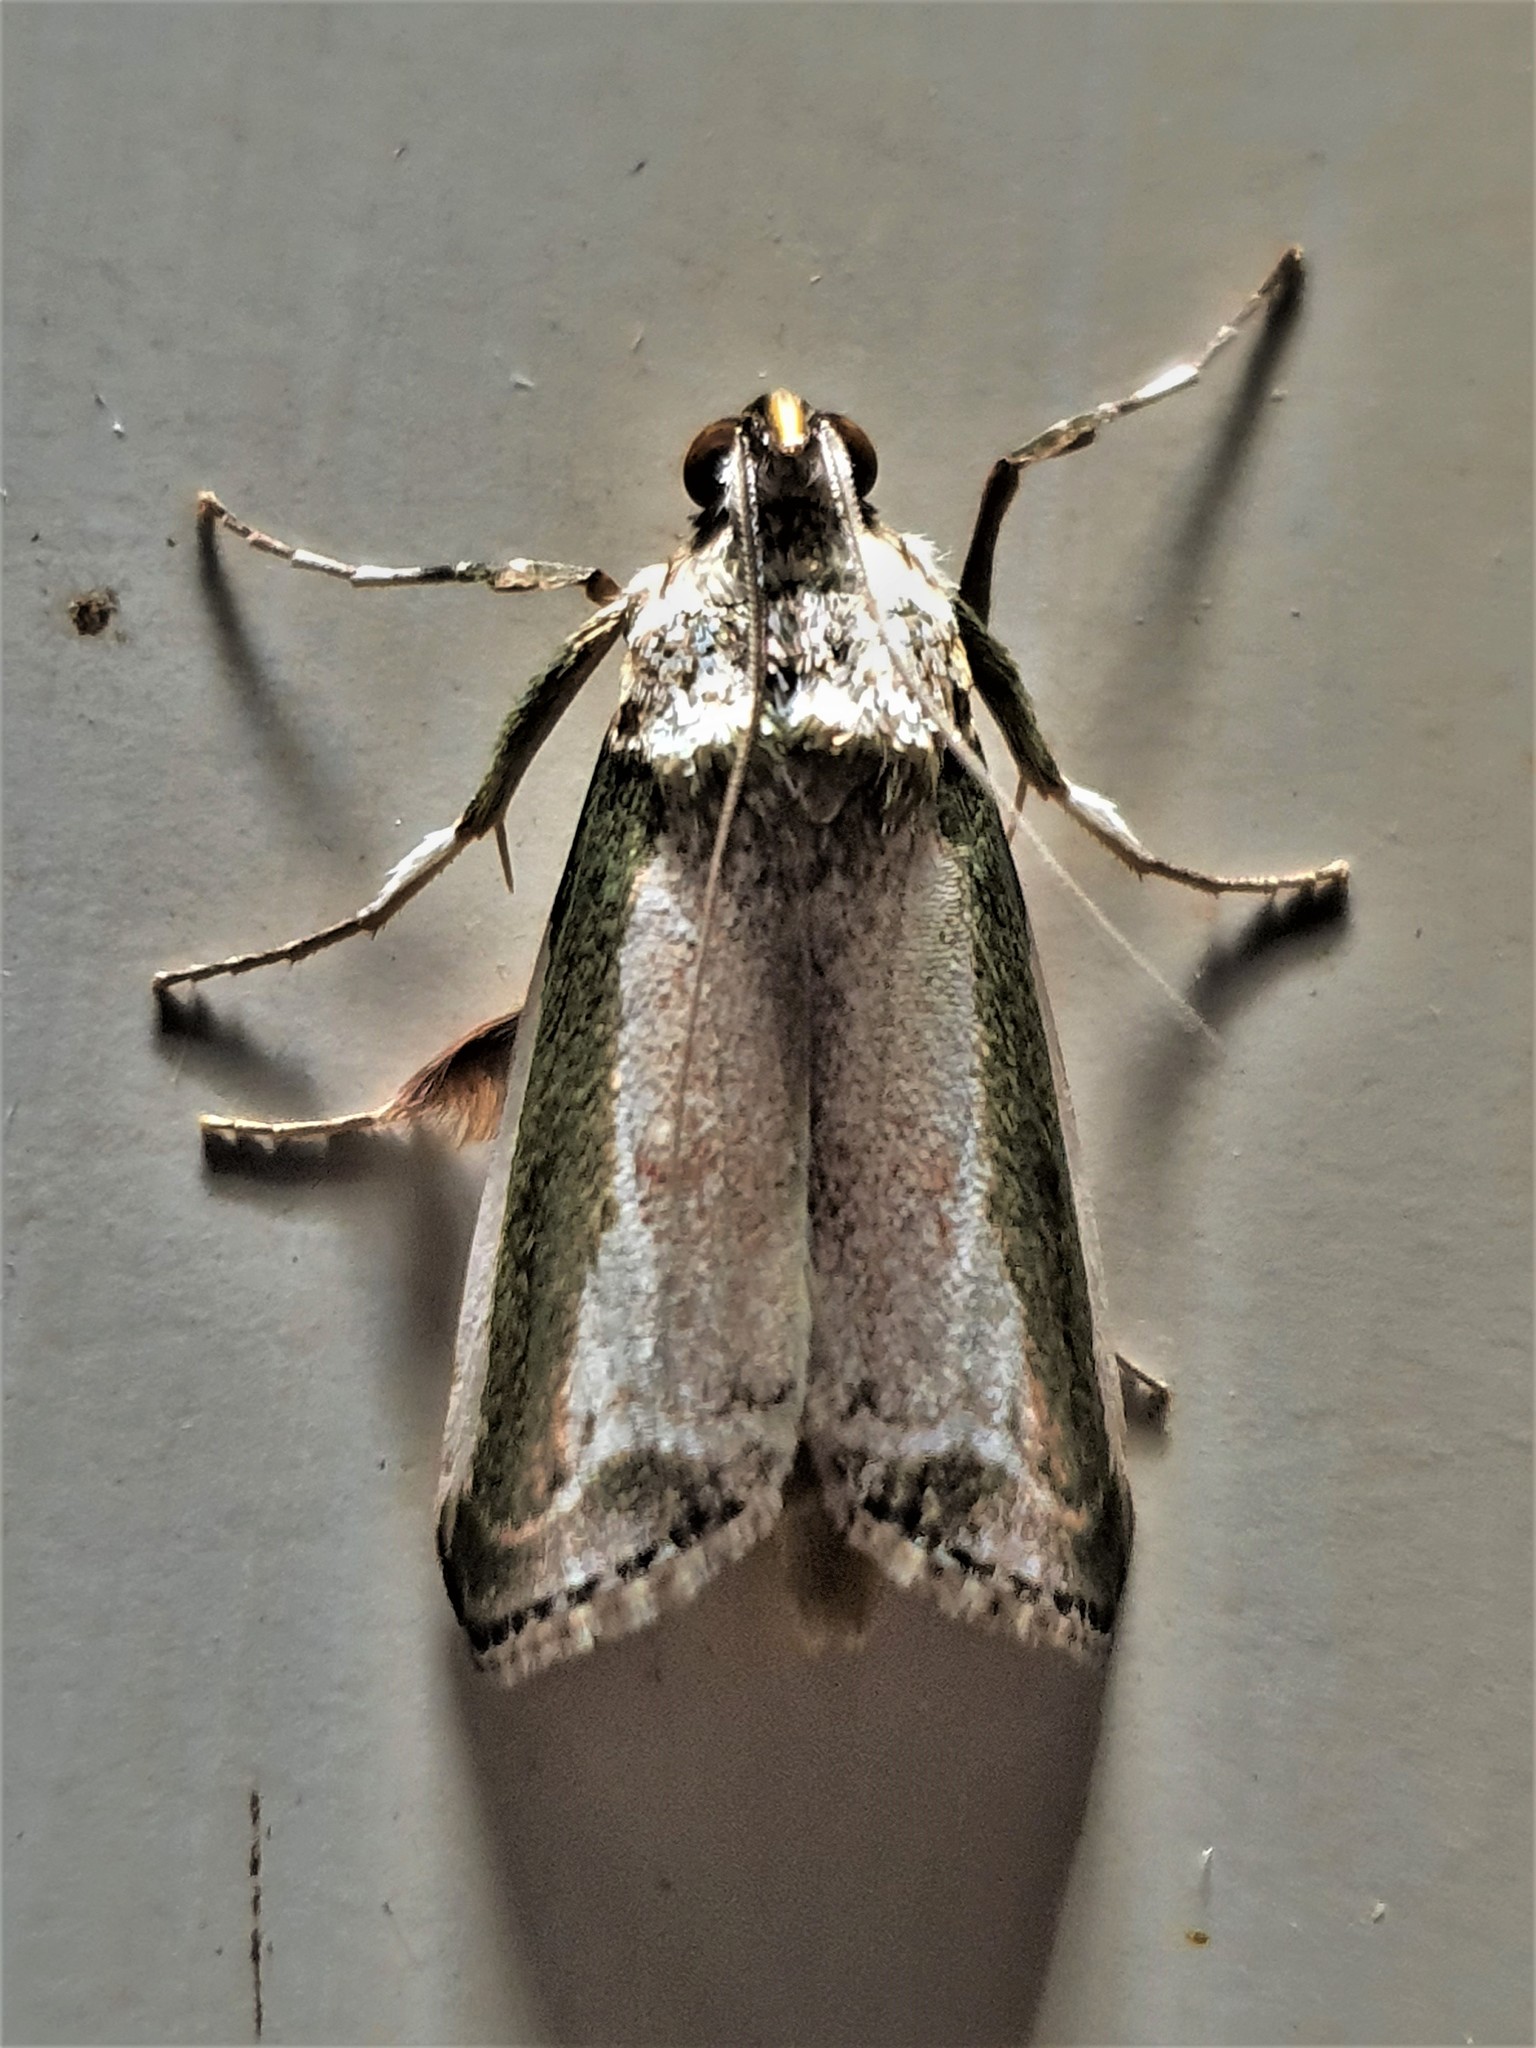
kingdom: Animalia
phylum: Arthropoda
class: Insecta
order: Lepidoptera
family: Pyralidae
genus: Carthara
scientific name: Carthara abrupta
